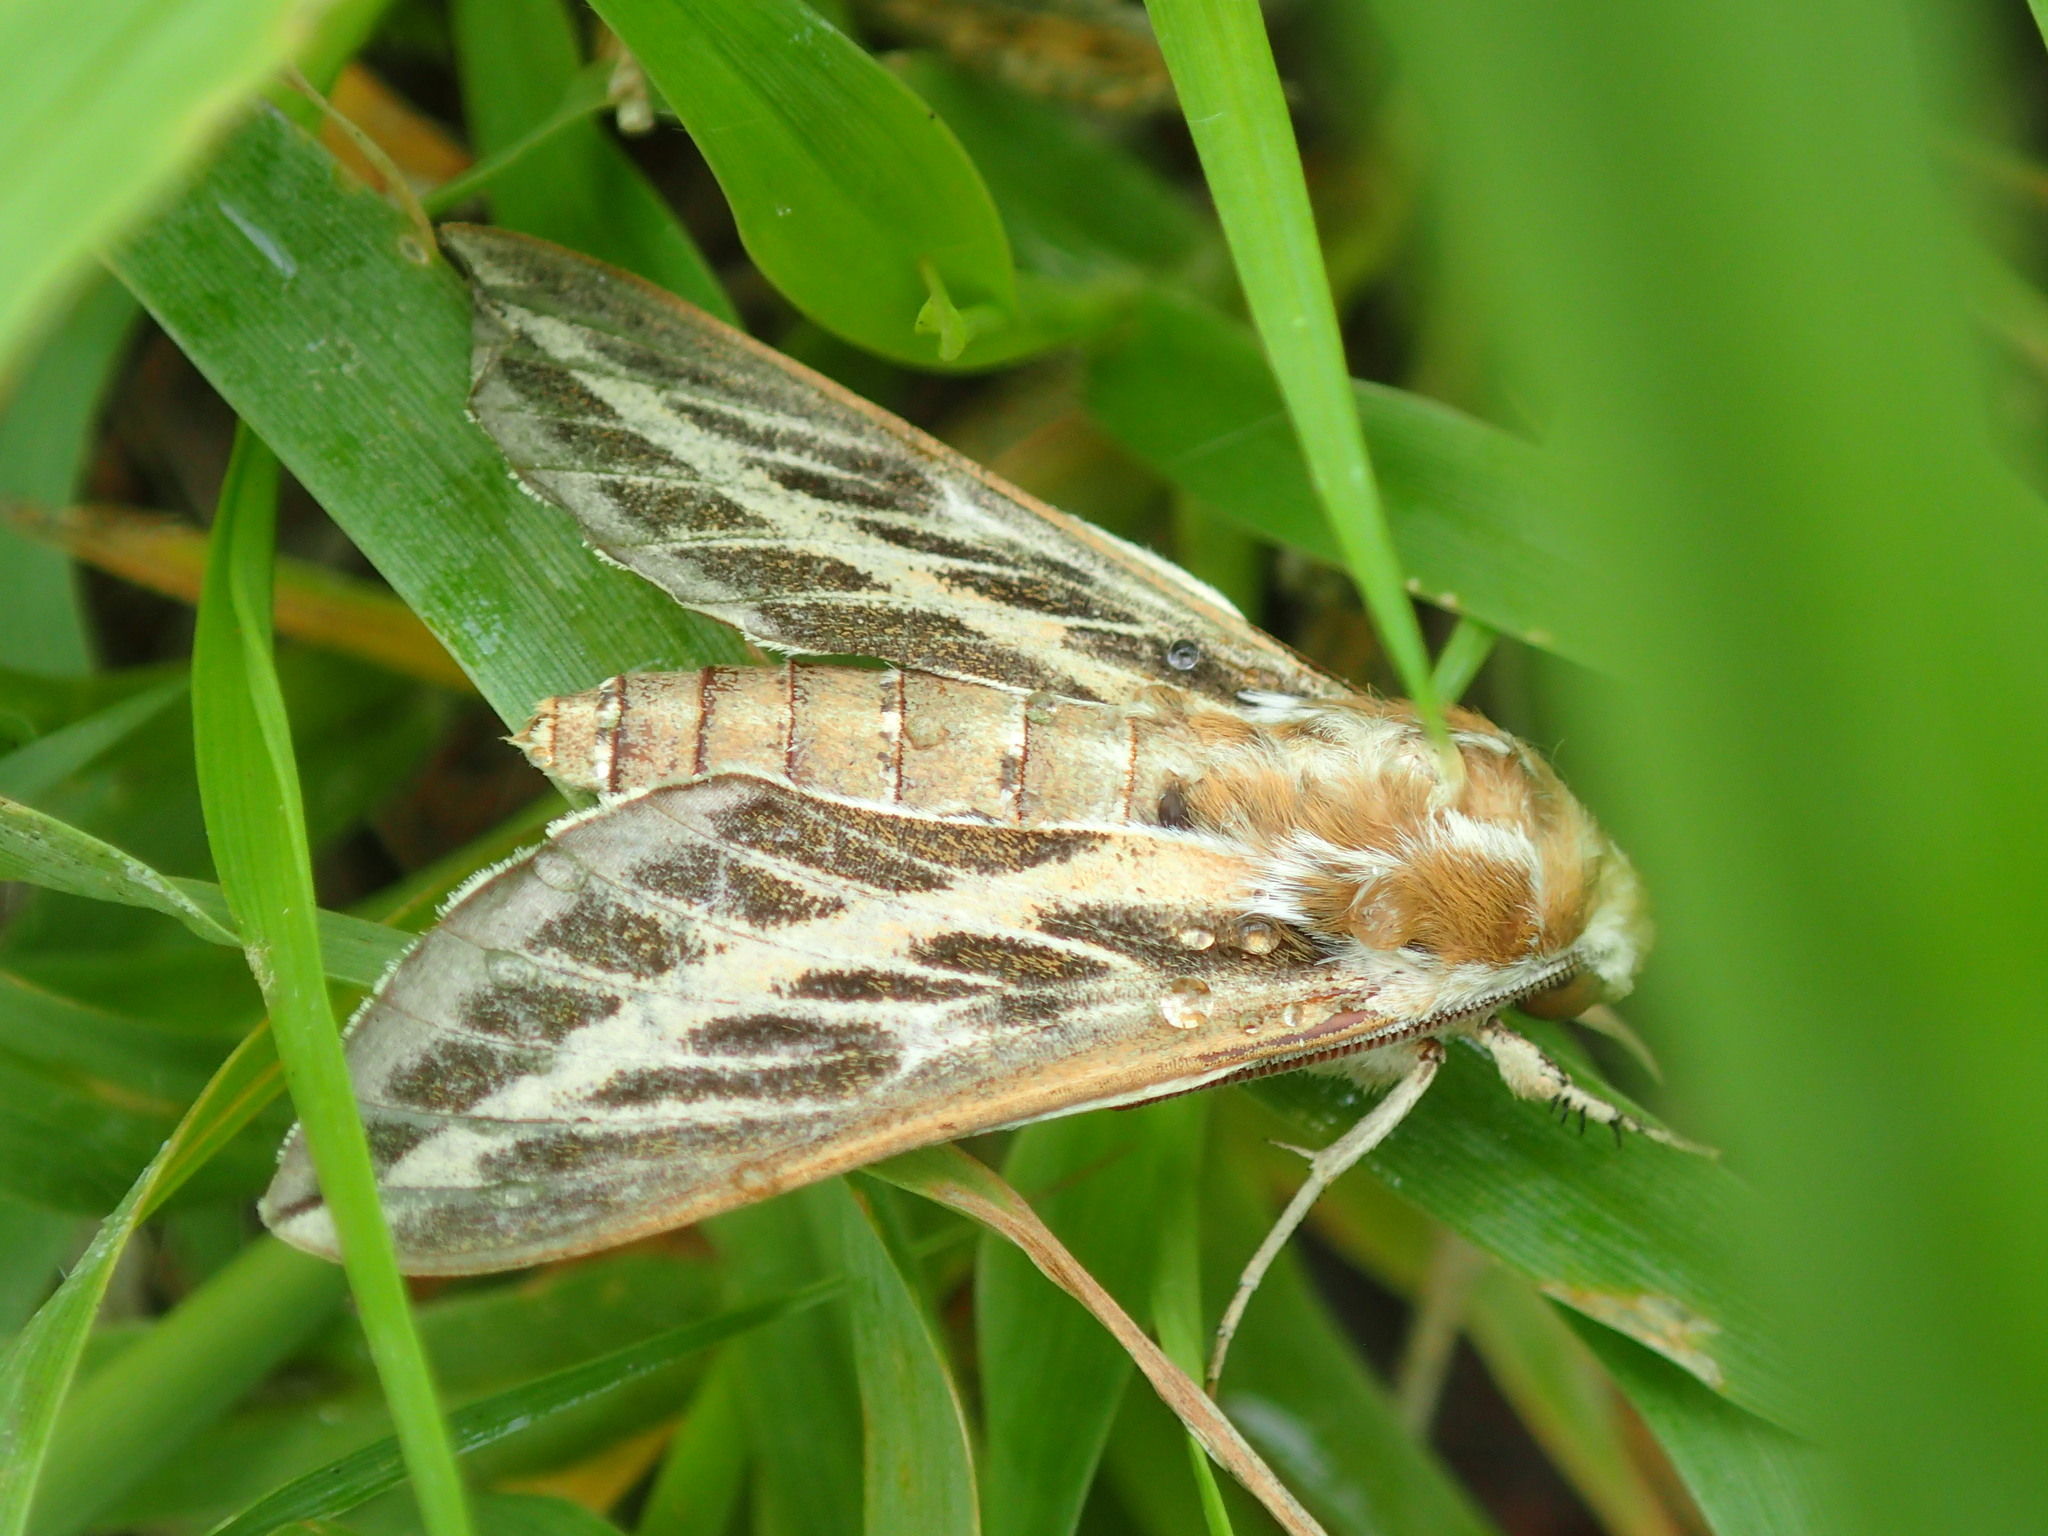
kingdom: Animalia
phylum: Arthropoda
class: Insecta
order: Lepidoptera
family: Sphingidae
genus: Hyles
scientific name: Hyles livornicoides
